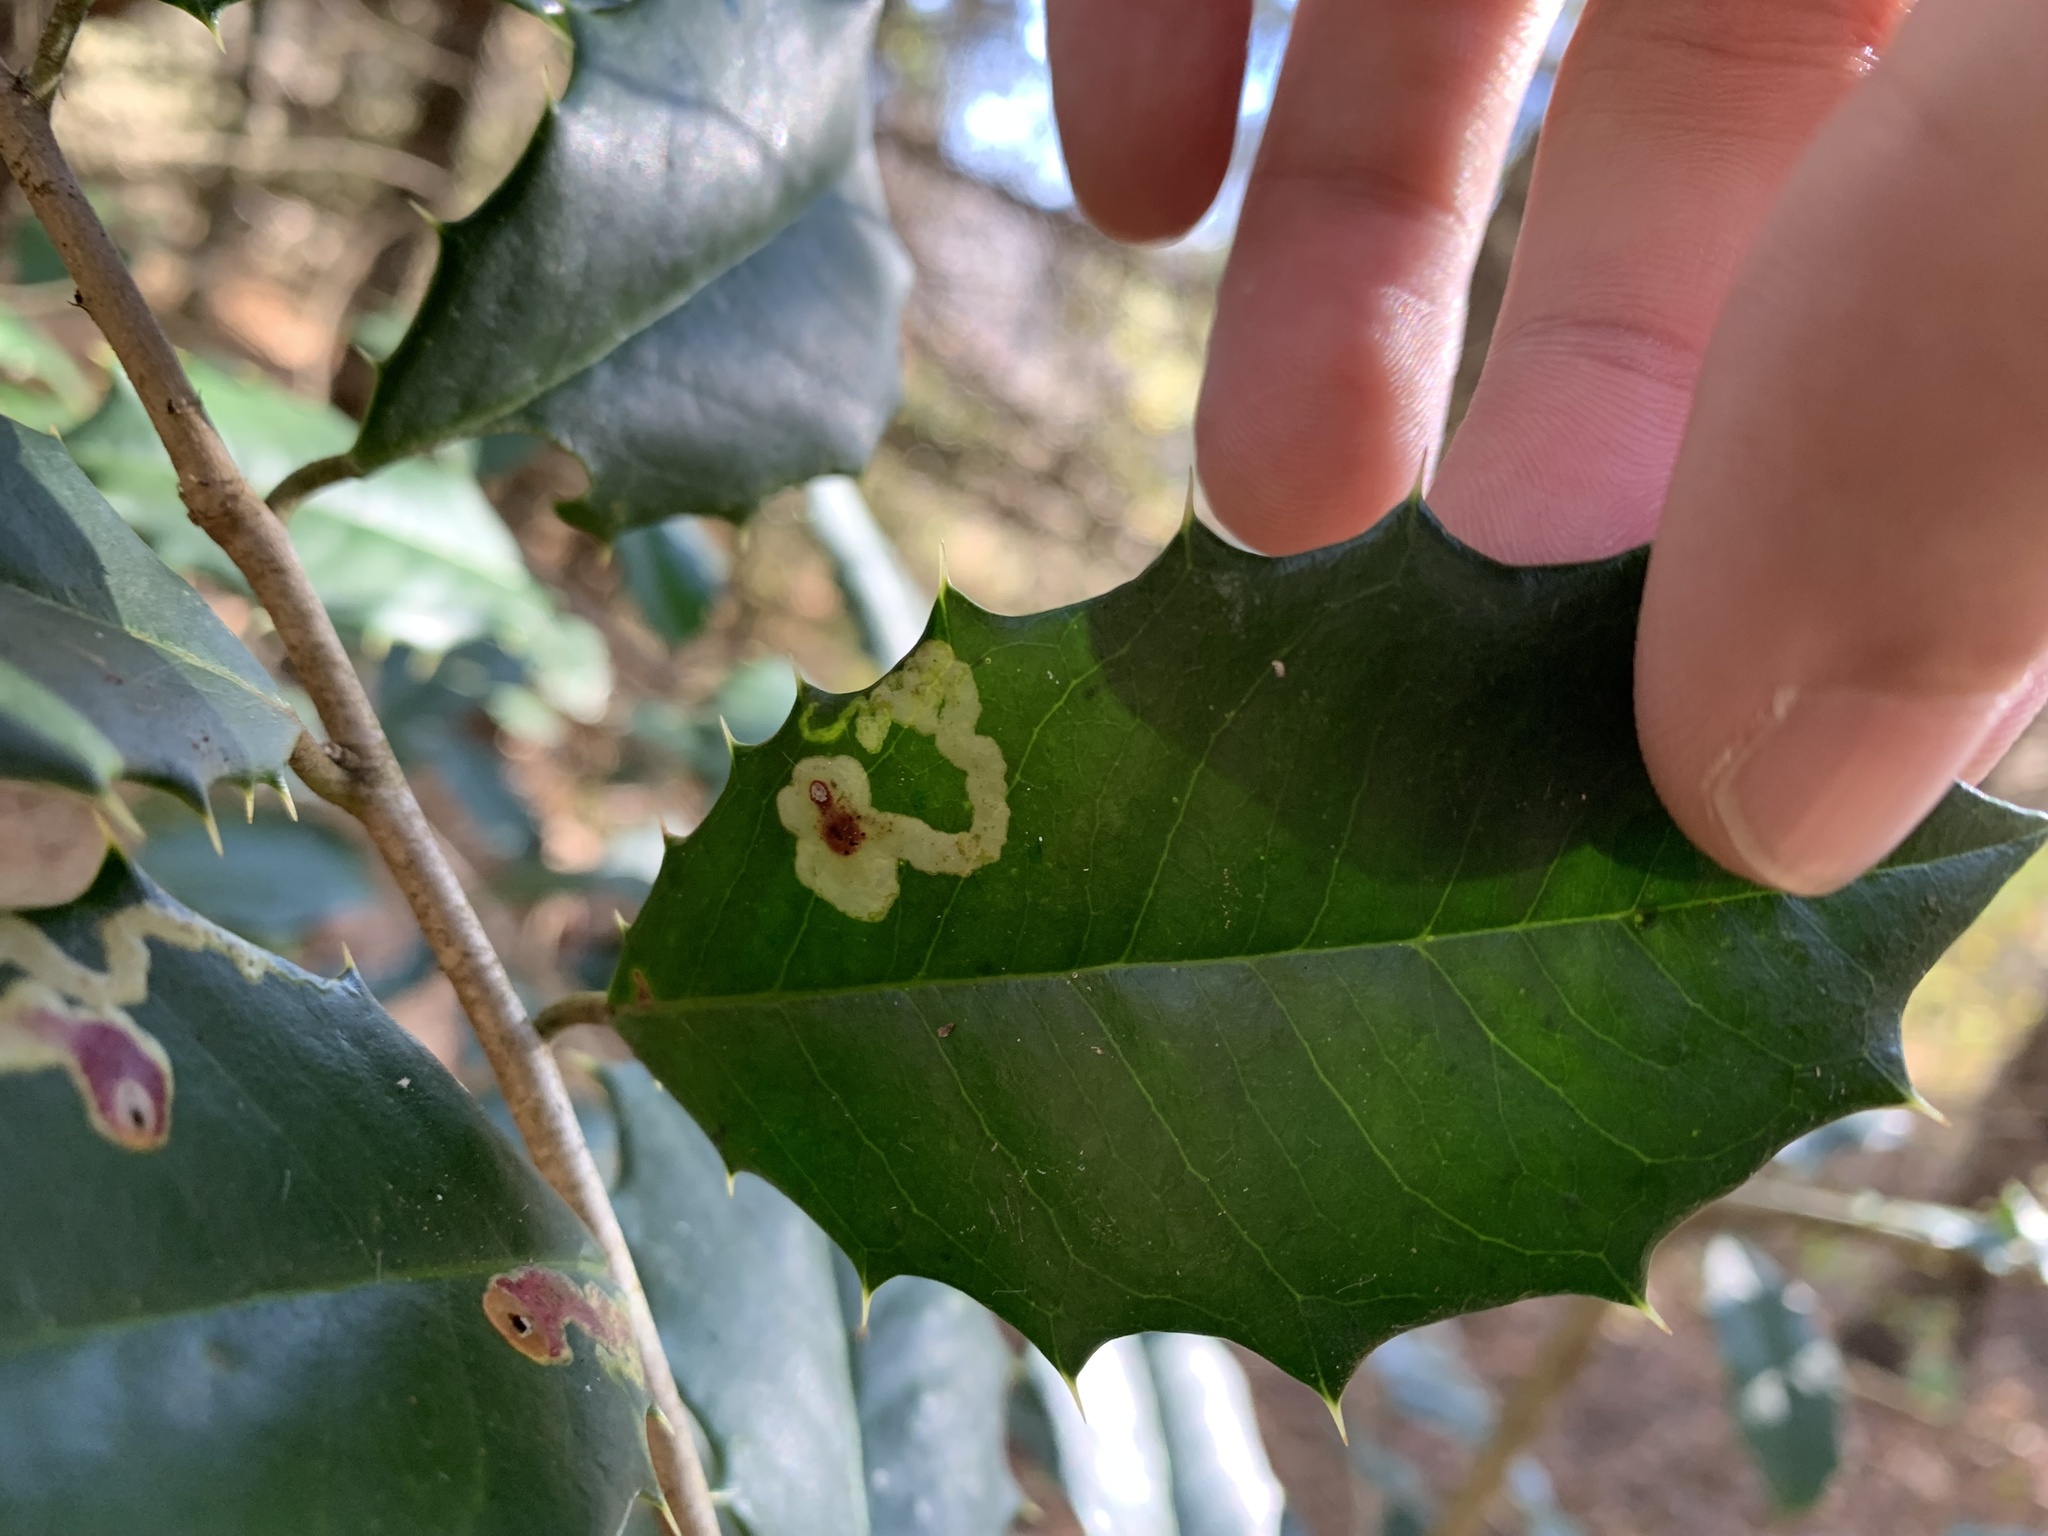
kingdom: Animalia
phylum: Arthropoda
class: Insecta
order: Diptera
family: Agromyzidae
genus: Phytomyza
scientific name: Phytomyza ilicicola
